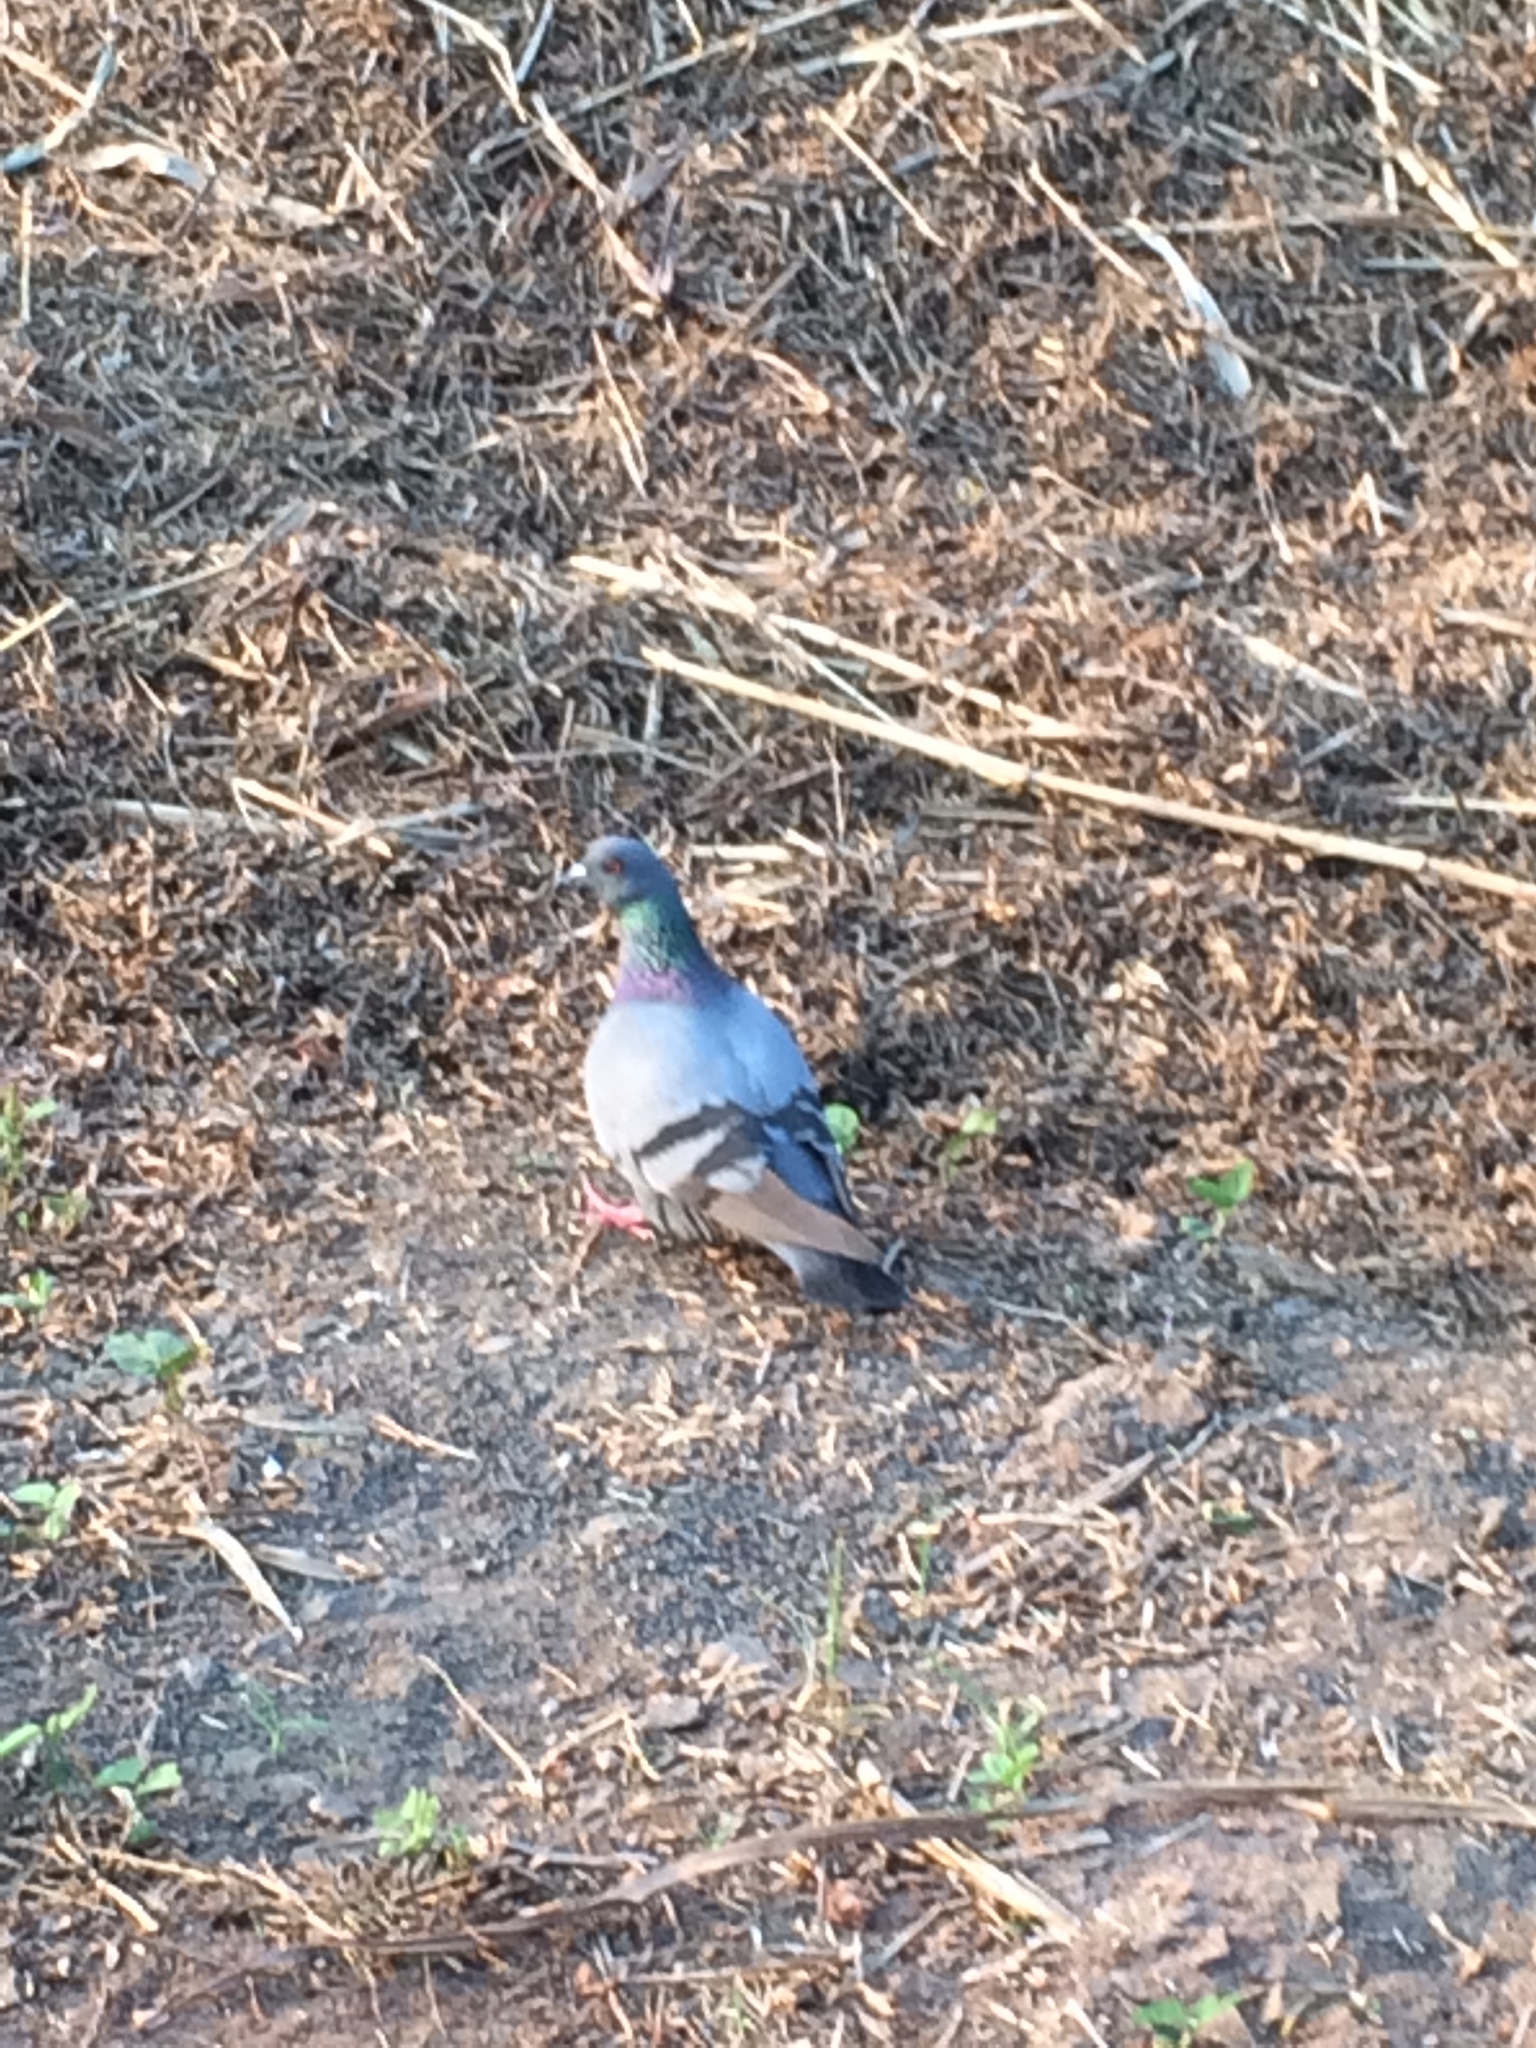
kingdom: Animalia
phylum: Chordata
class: Aves
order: Columbiformes
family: Columbidae
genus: Columba
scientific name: Columba livia
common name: Rock pigeon
